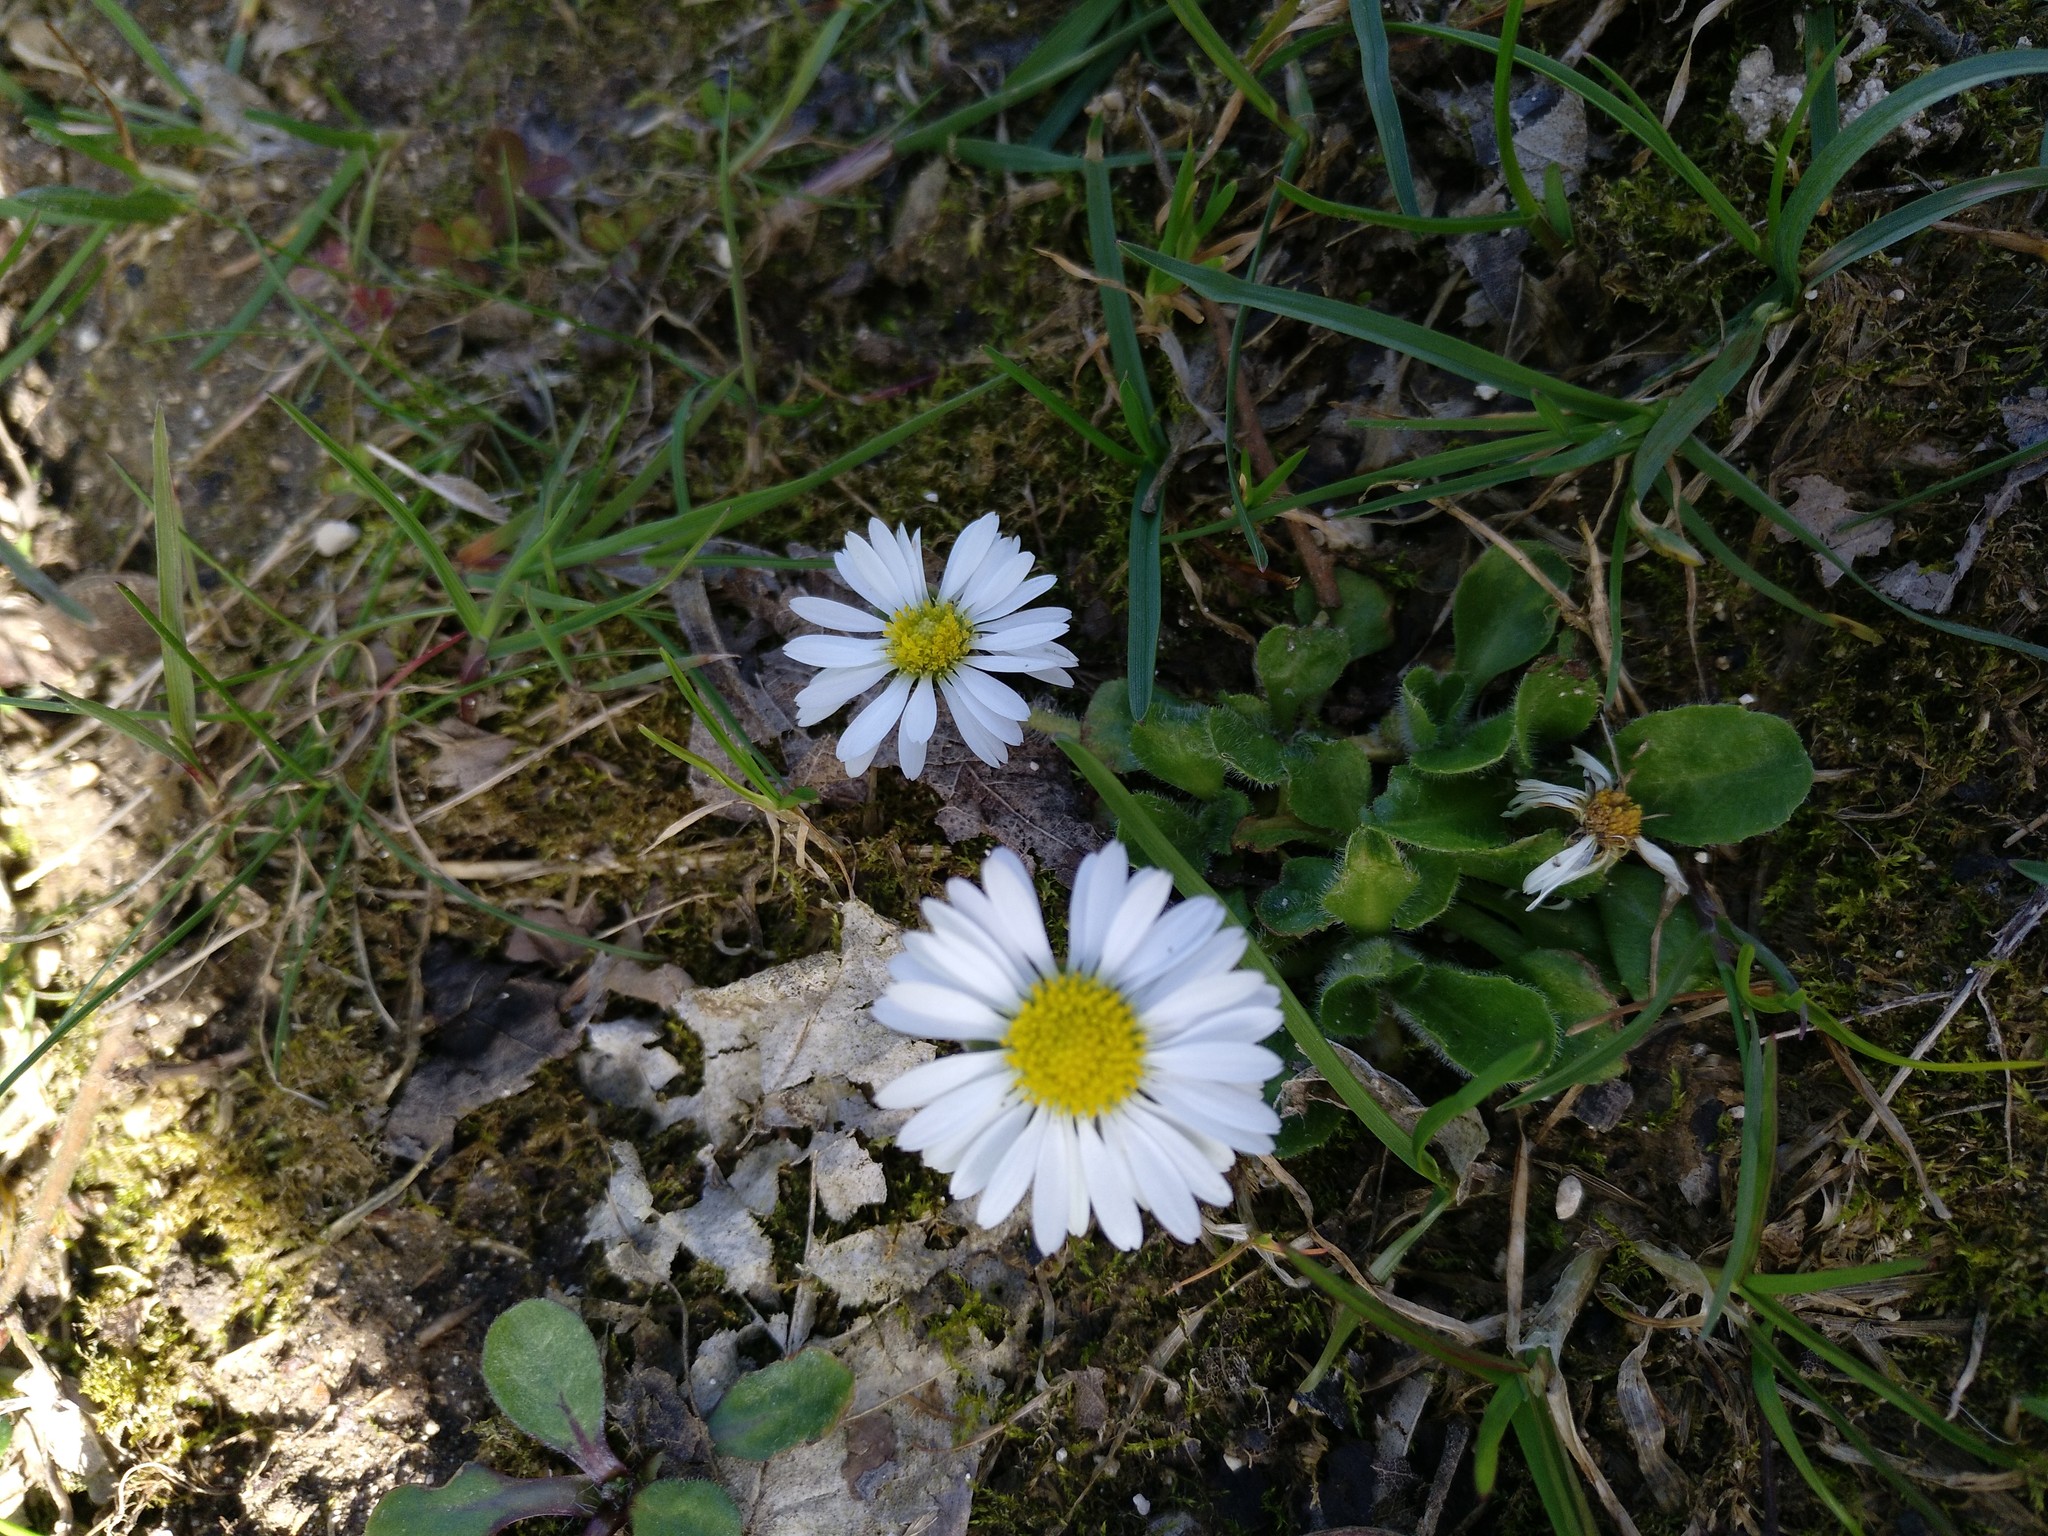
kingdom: Plantae
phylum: Tracheophyta
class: Magnoliopsida
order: Asterales
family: Asteraceae
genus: Bellis
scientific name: Bellis perennis
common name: Lawndaisy
